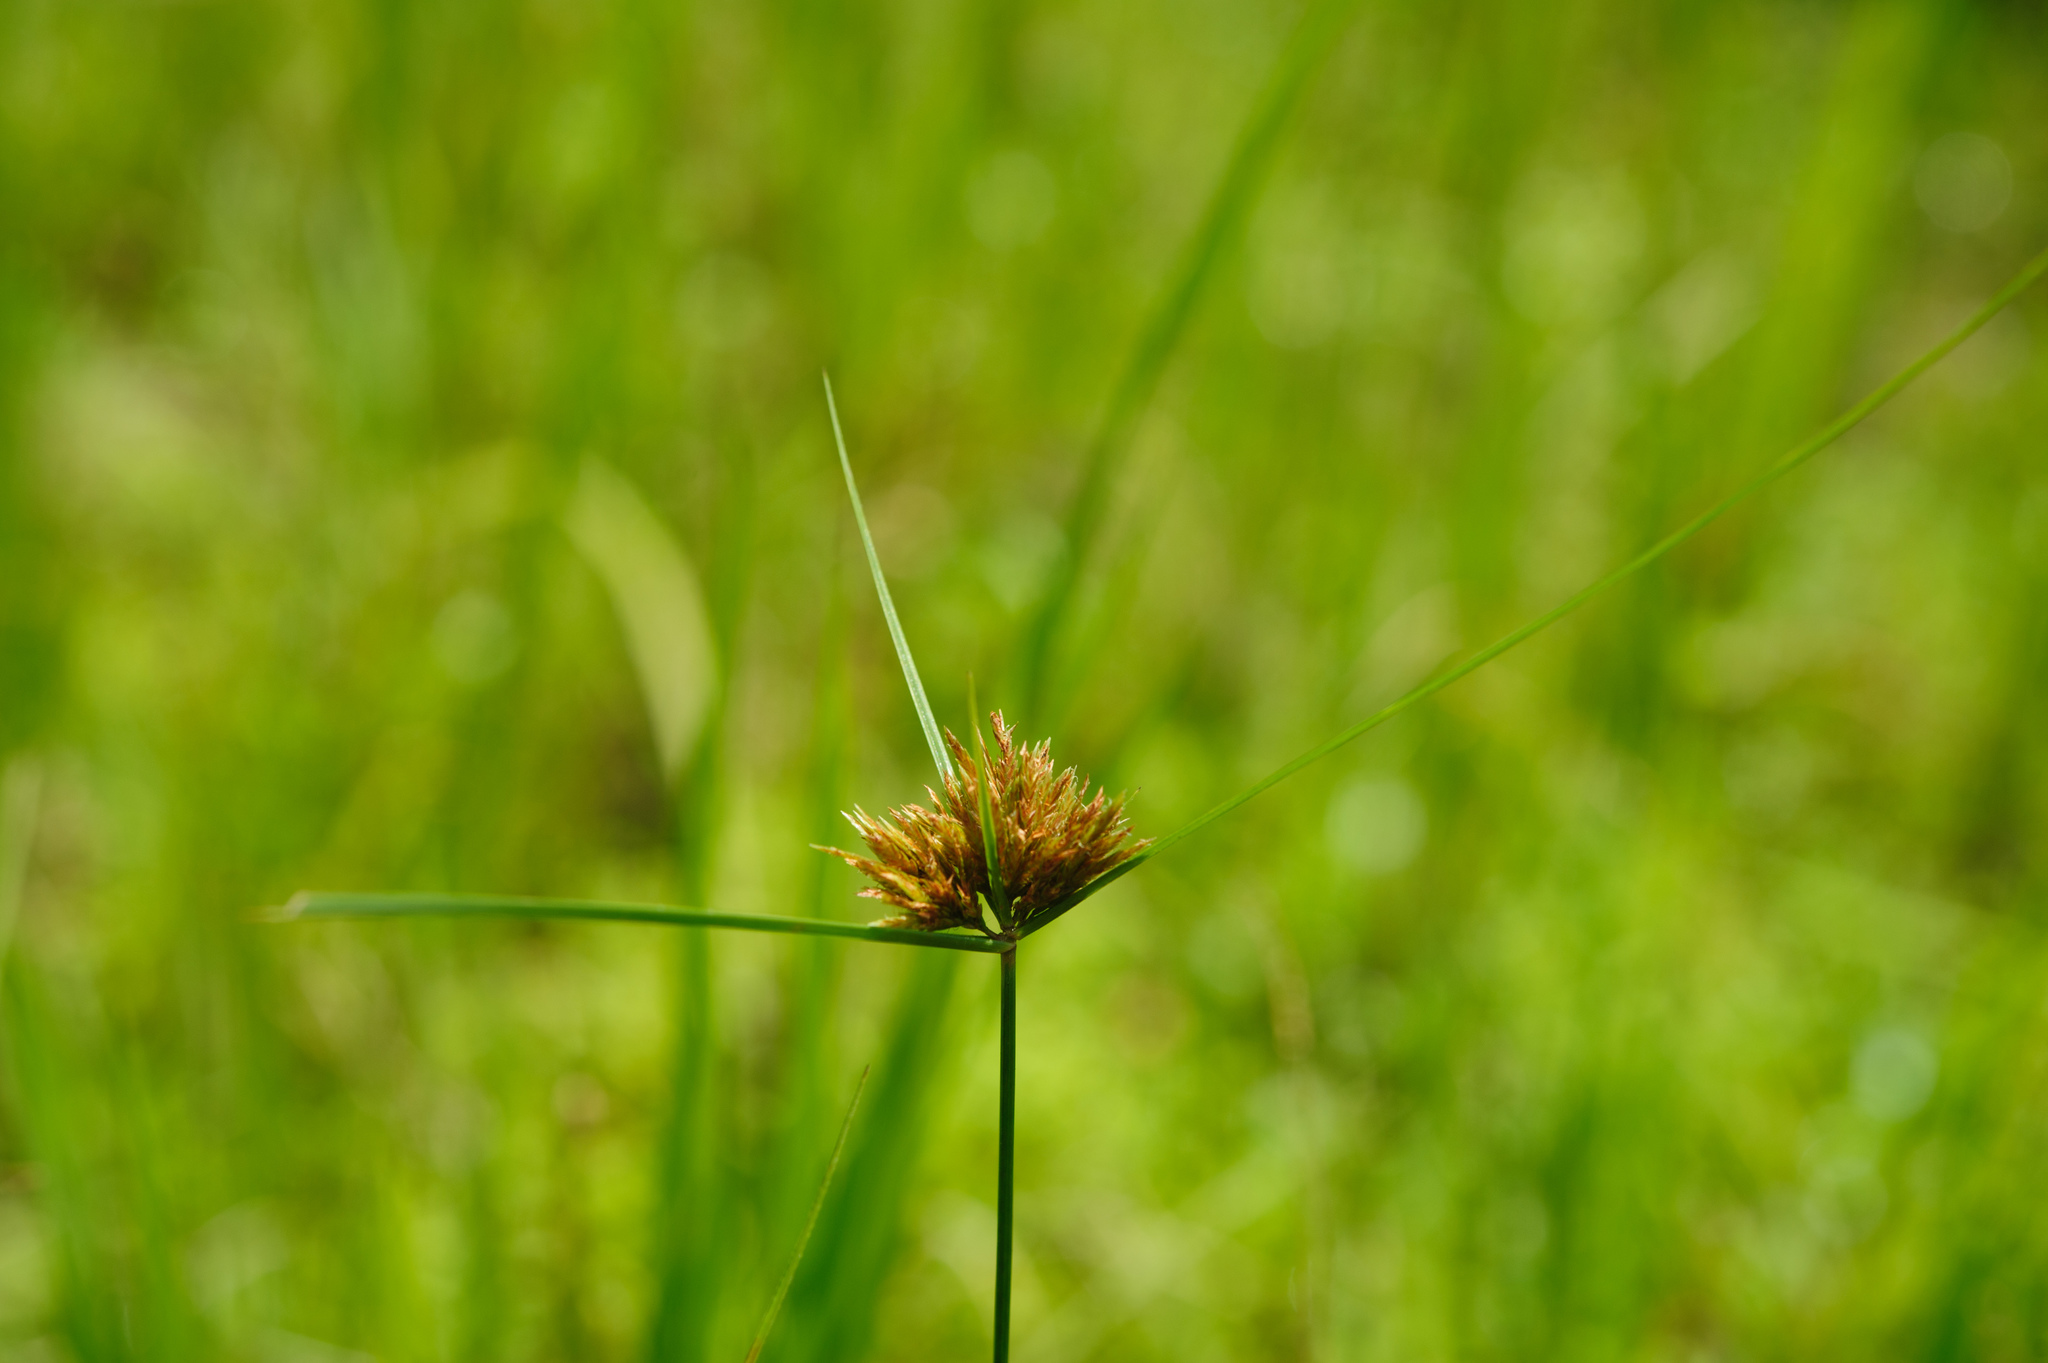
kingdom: Plantae
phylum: Tracheophyta
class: Liliopsida
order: Poales
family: Cyperaceae
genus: Cyperus
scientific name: Cyperus polystachyos
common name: Bunchy flat sedge
